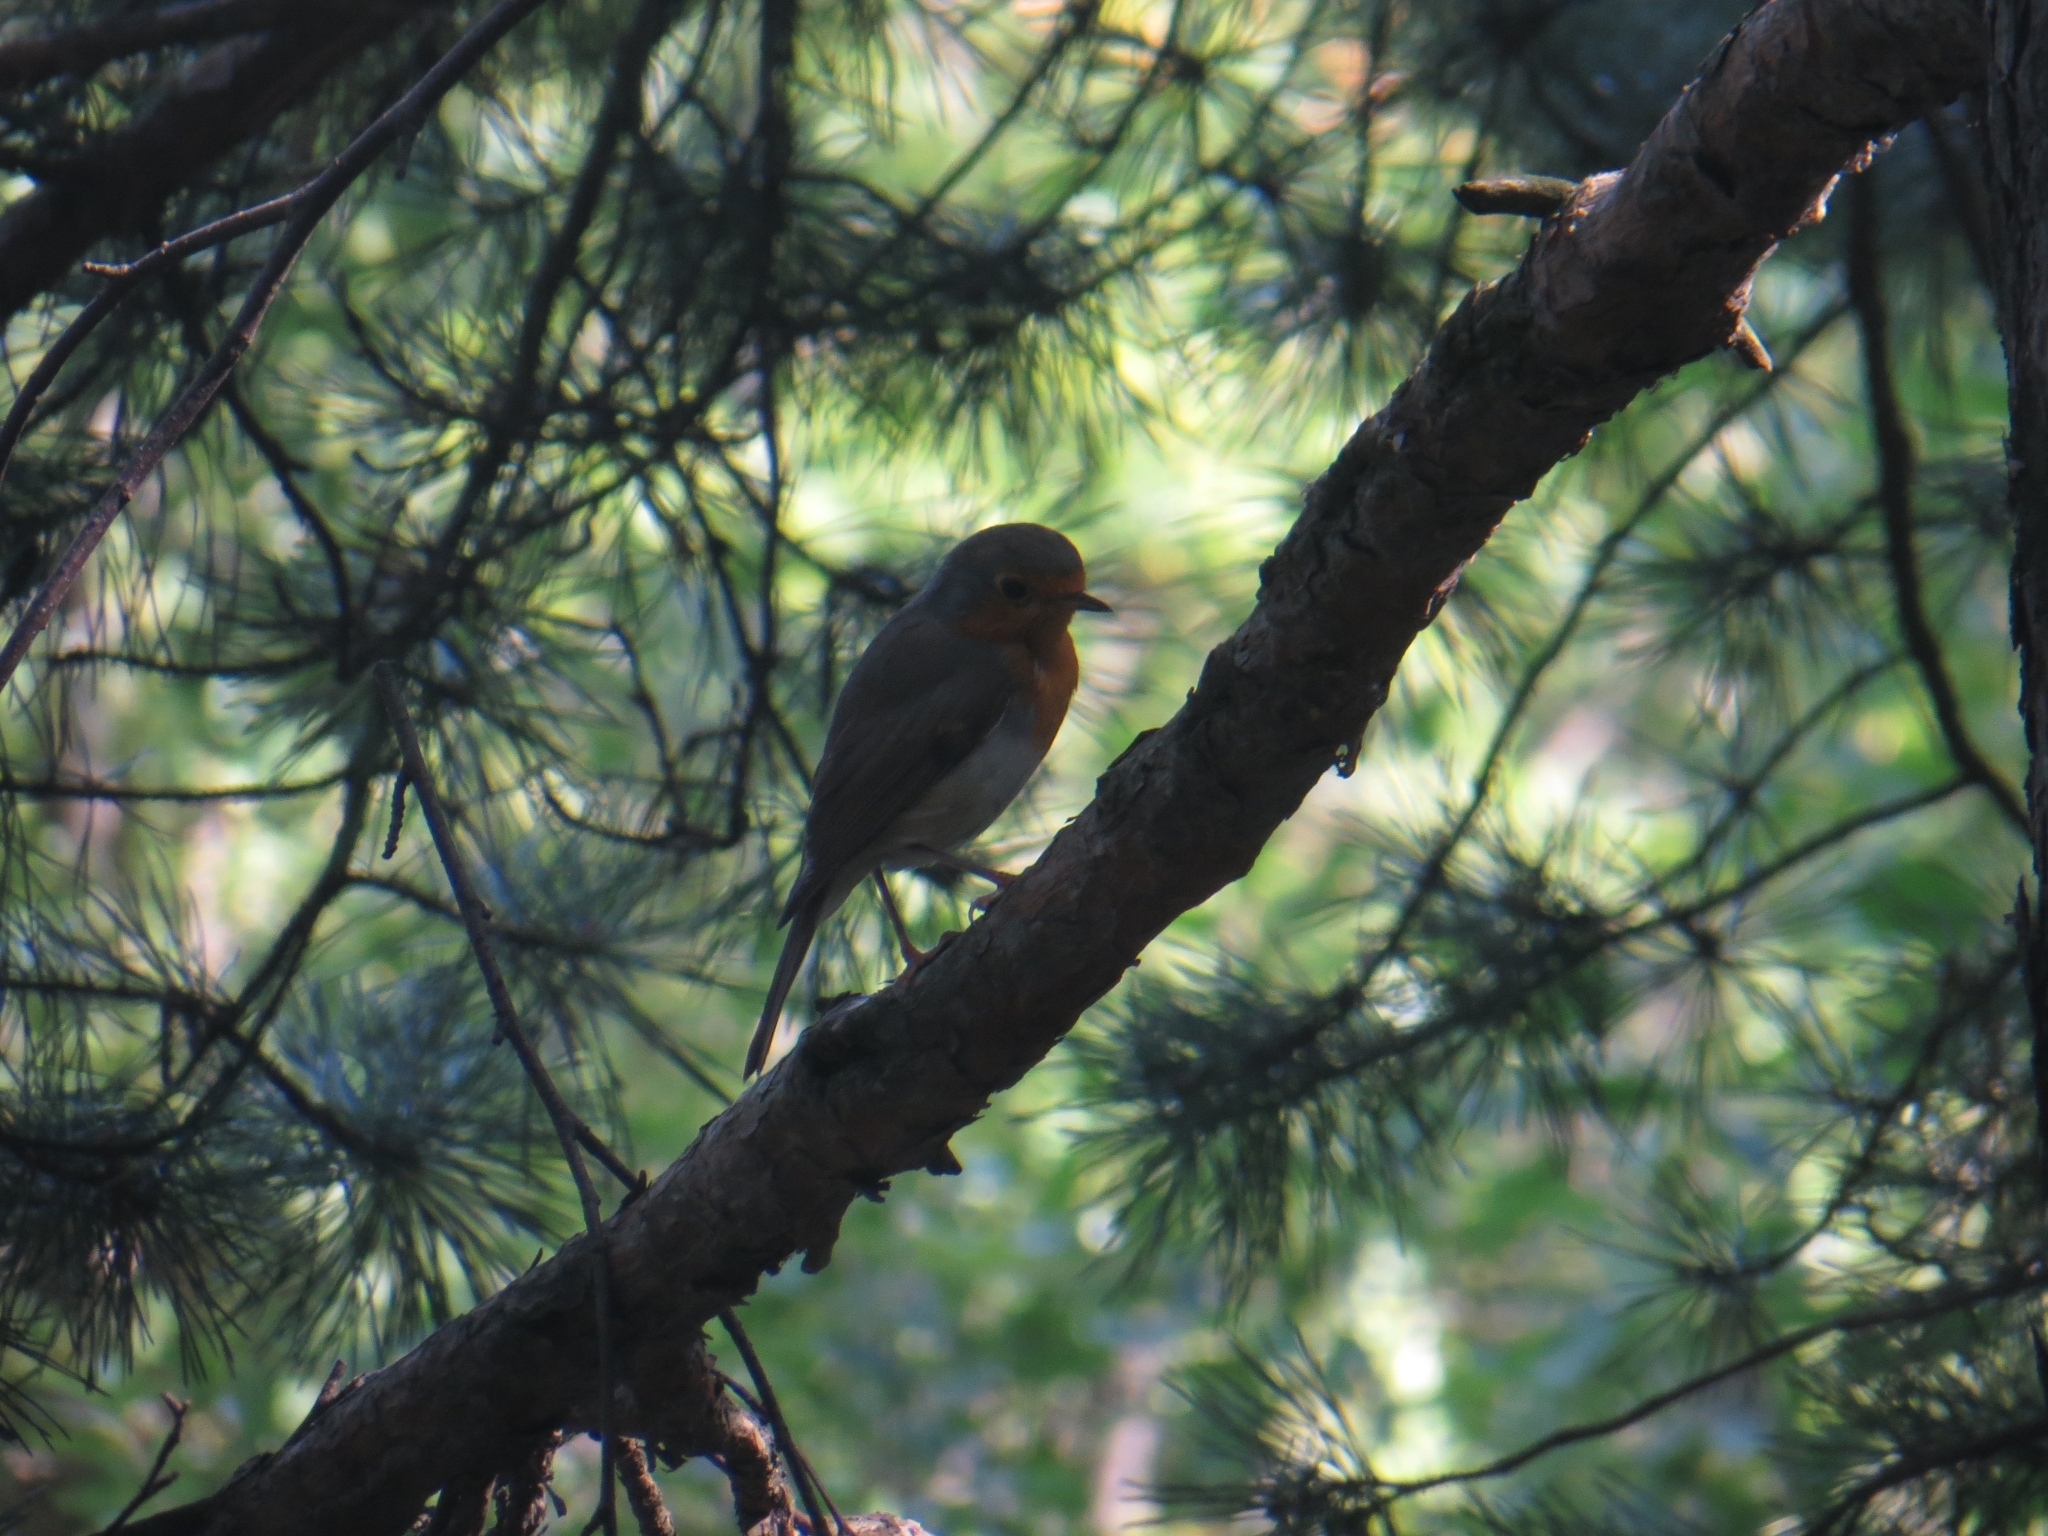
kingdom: Animalia
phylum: Chordata
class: Aves
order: Passeriformes
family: Muscicapidae
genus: Erithacus
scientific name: Erithacus rubecula
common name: European robin
